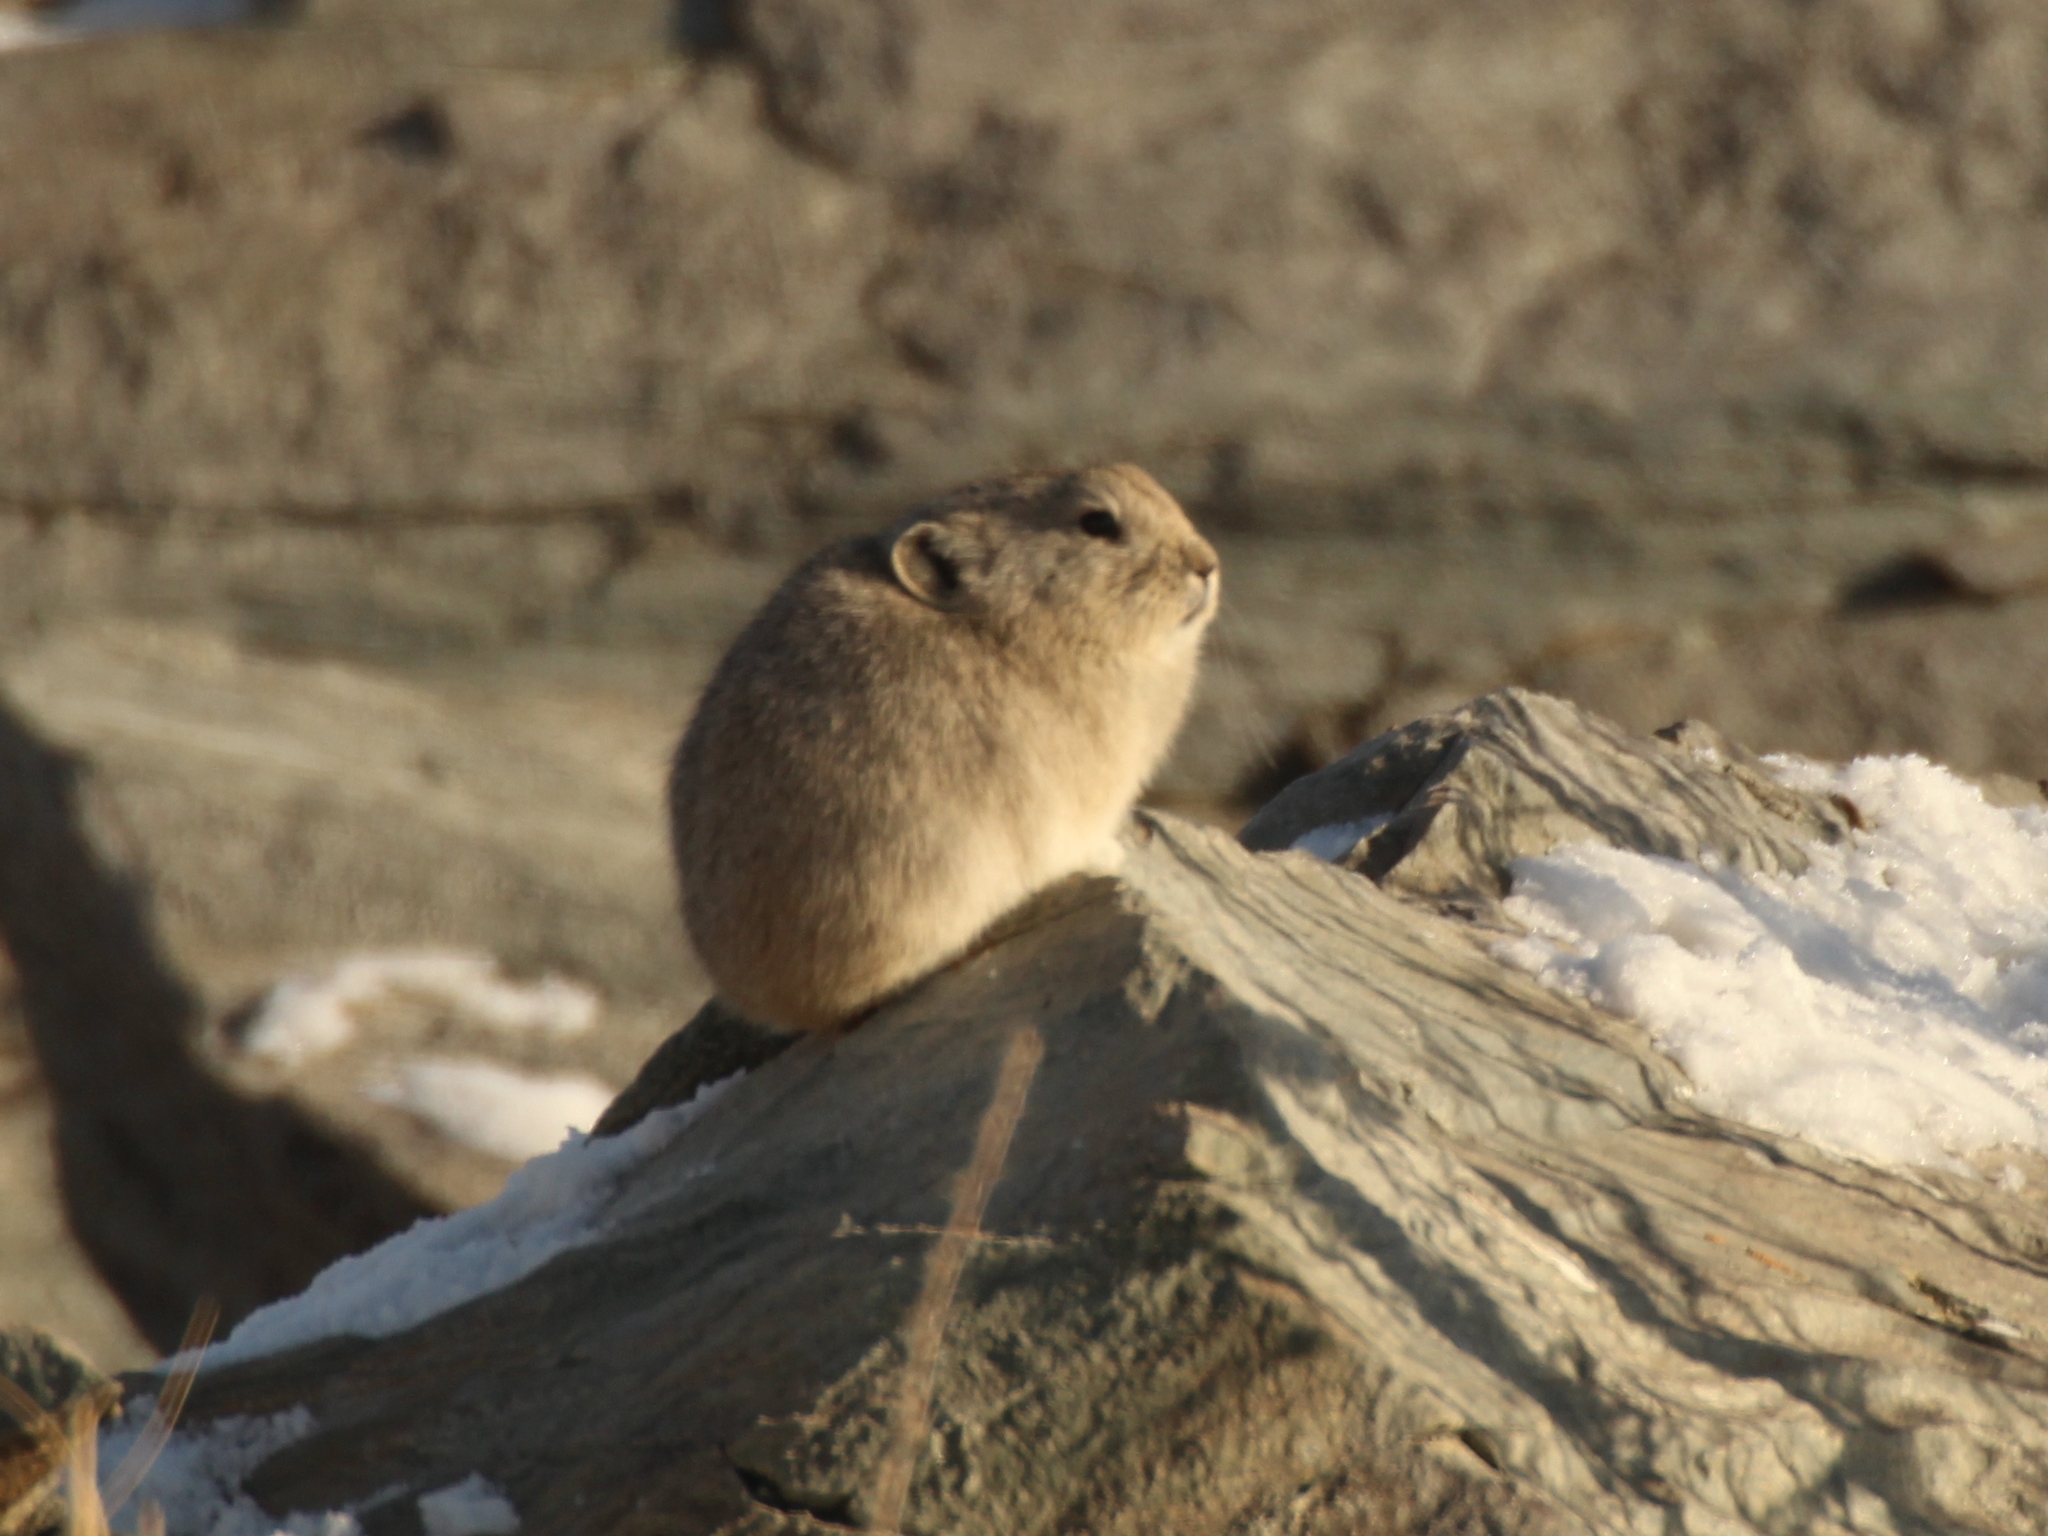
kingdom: Animalia
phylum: Chordata
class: Mammalia
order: Lagomorpha
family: Ochotonidae
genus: Ochotona
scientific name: Ochotona pallasi
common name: Mongolian pika
